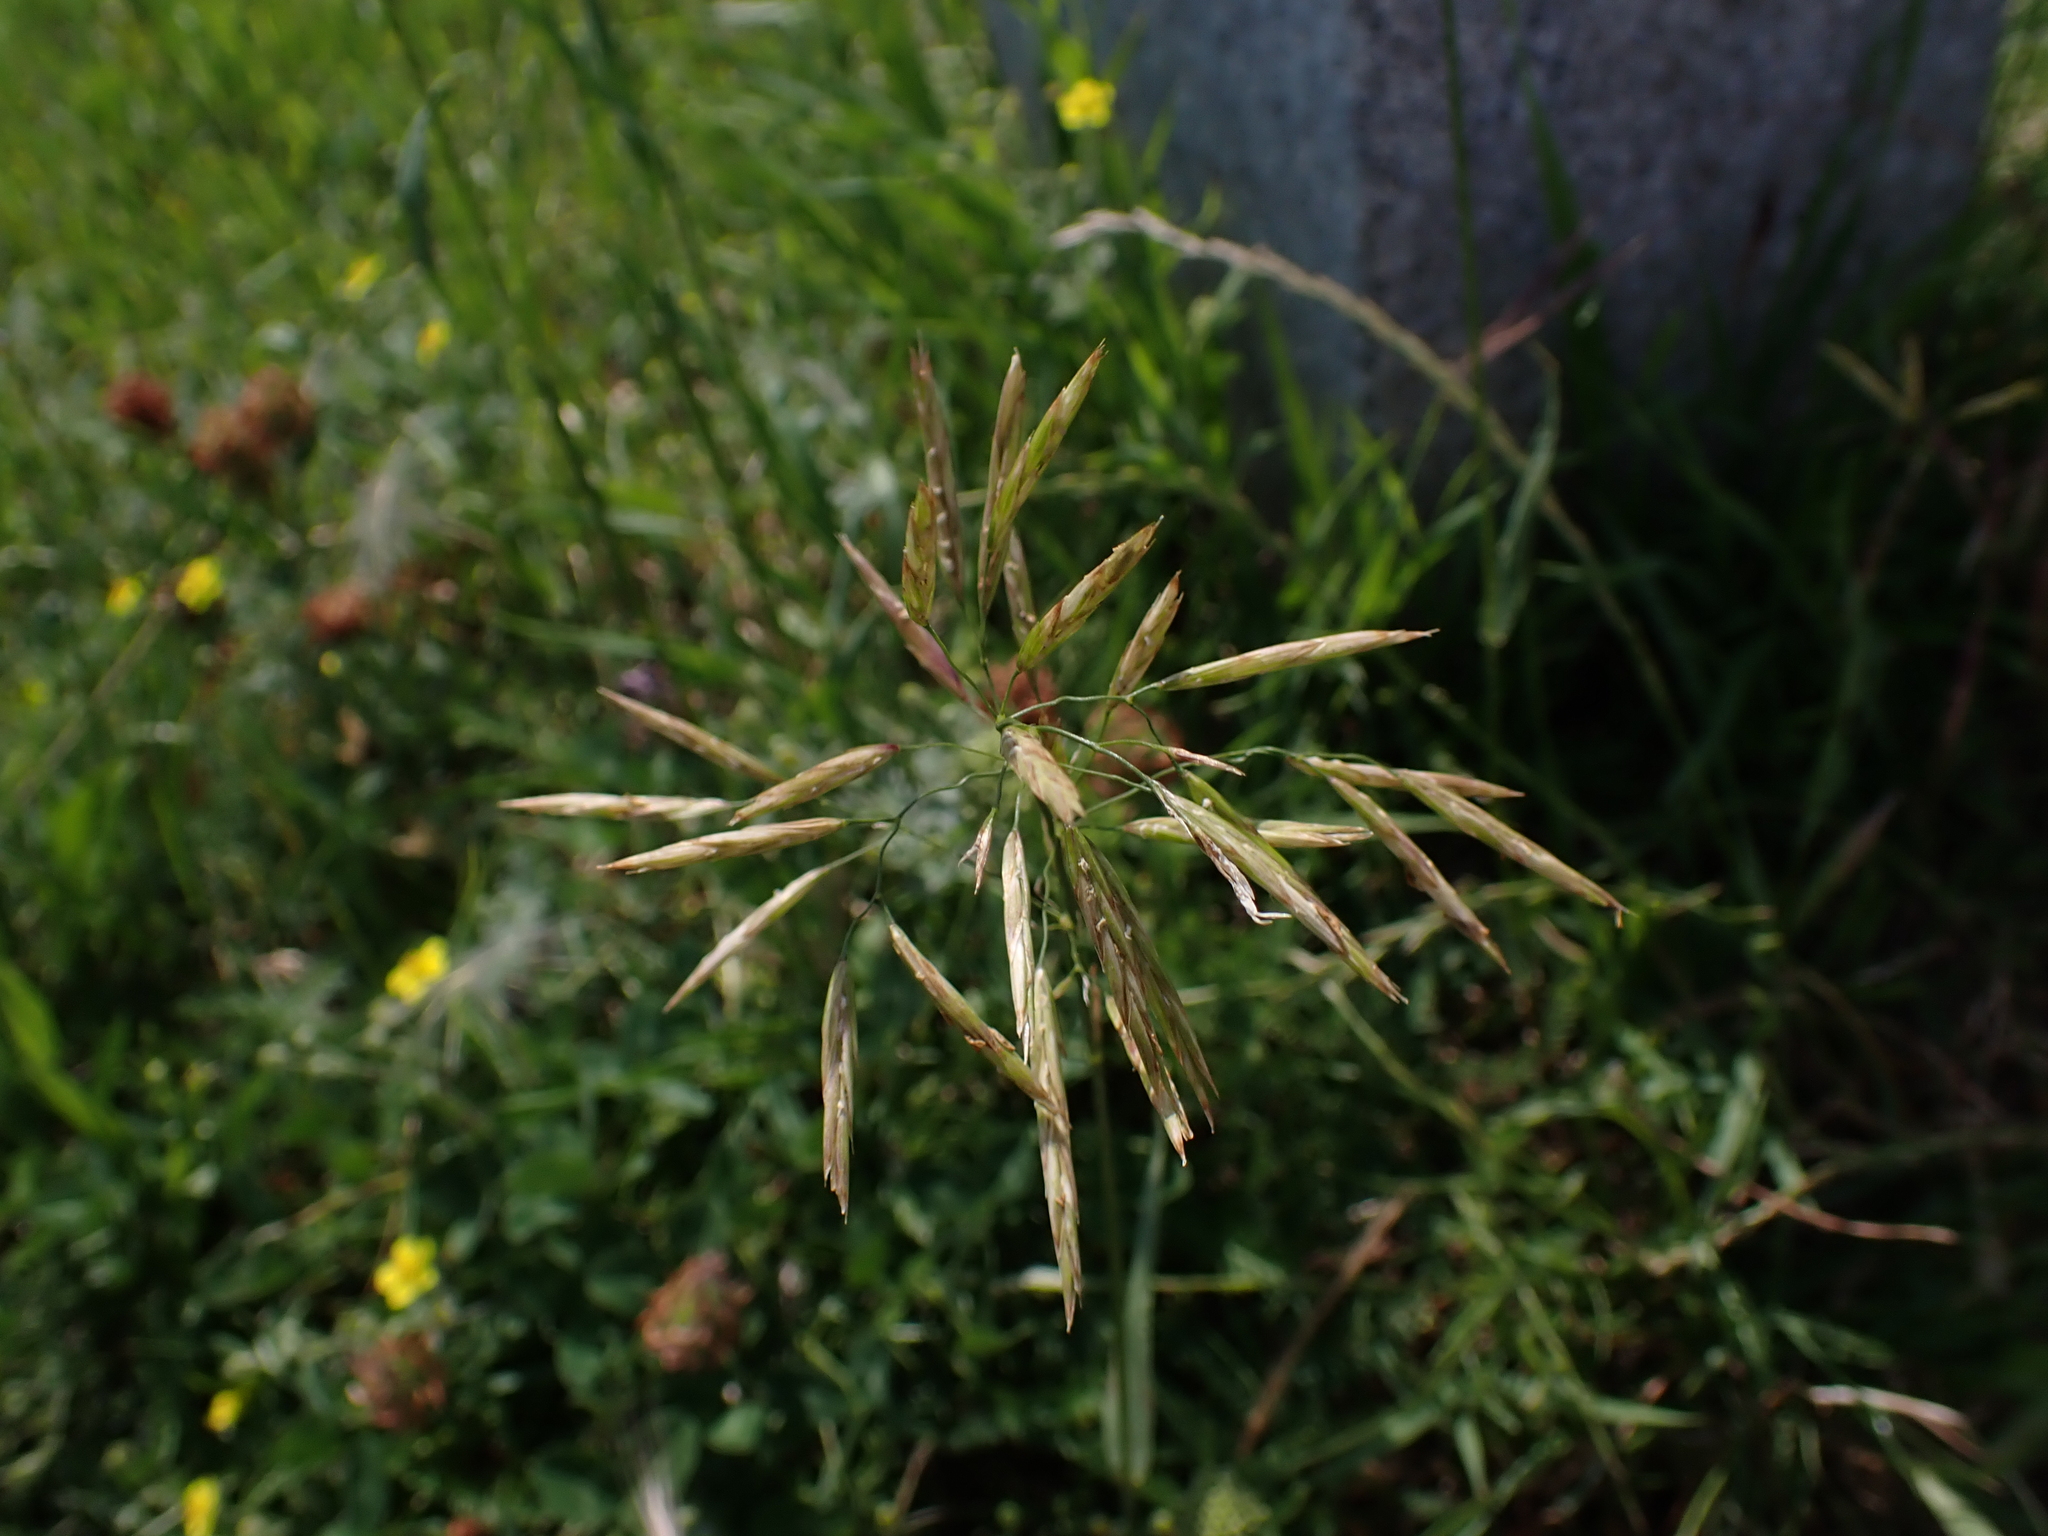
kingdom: Plantae
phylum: Tracheophyta
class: Liliopsida
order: Poales
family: Poaceae
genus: Bromus
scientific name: Bromus inermis
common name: Smooth brome
